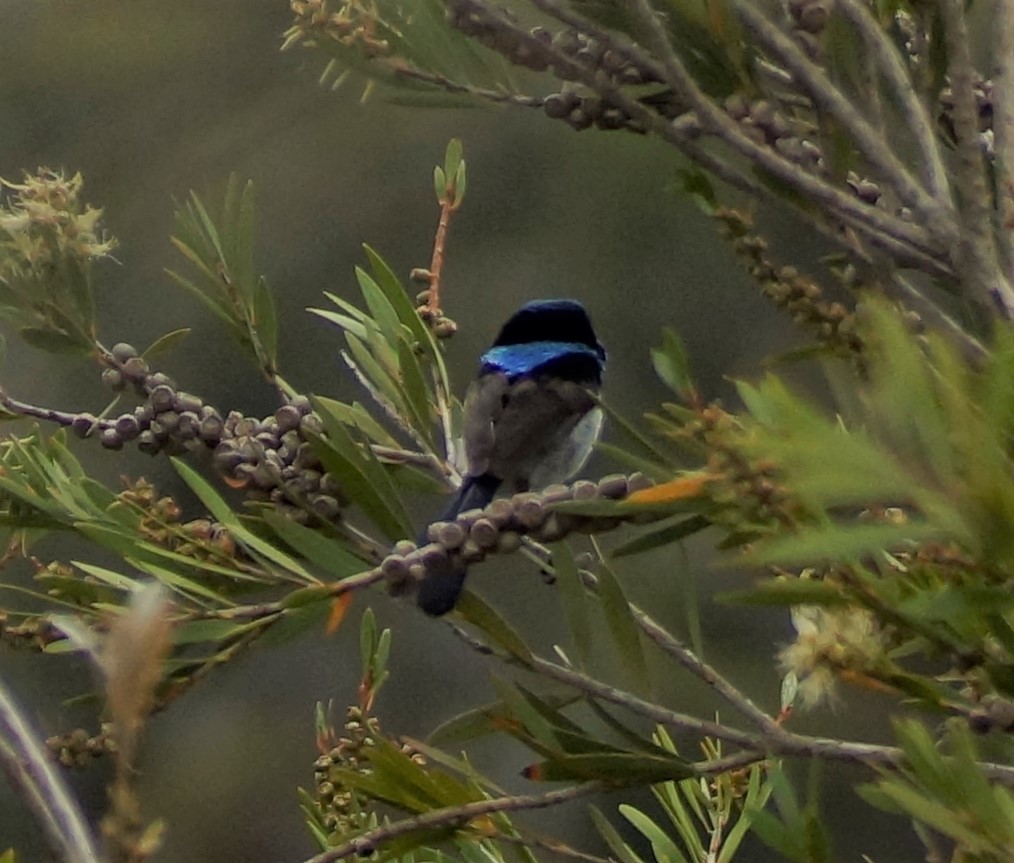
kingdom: Animalia
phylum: Chordata
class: Aves
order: Passeriformes
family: Maluridae
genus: Malurus
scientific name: Malurus cyaneus
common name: Superb fairywren
